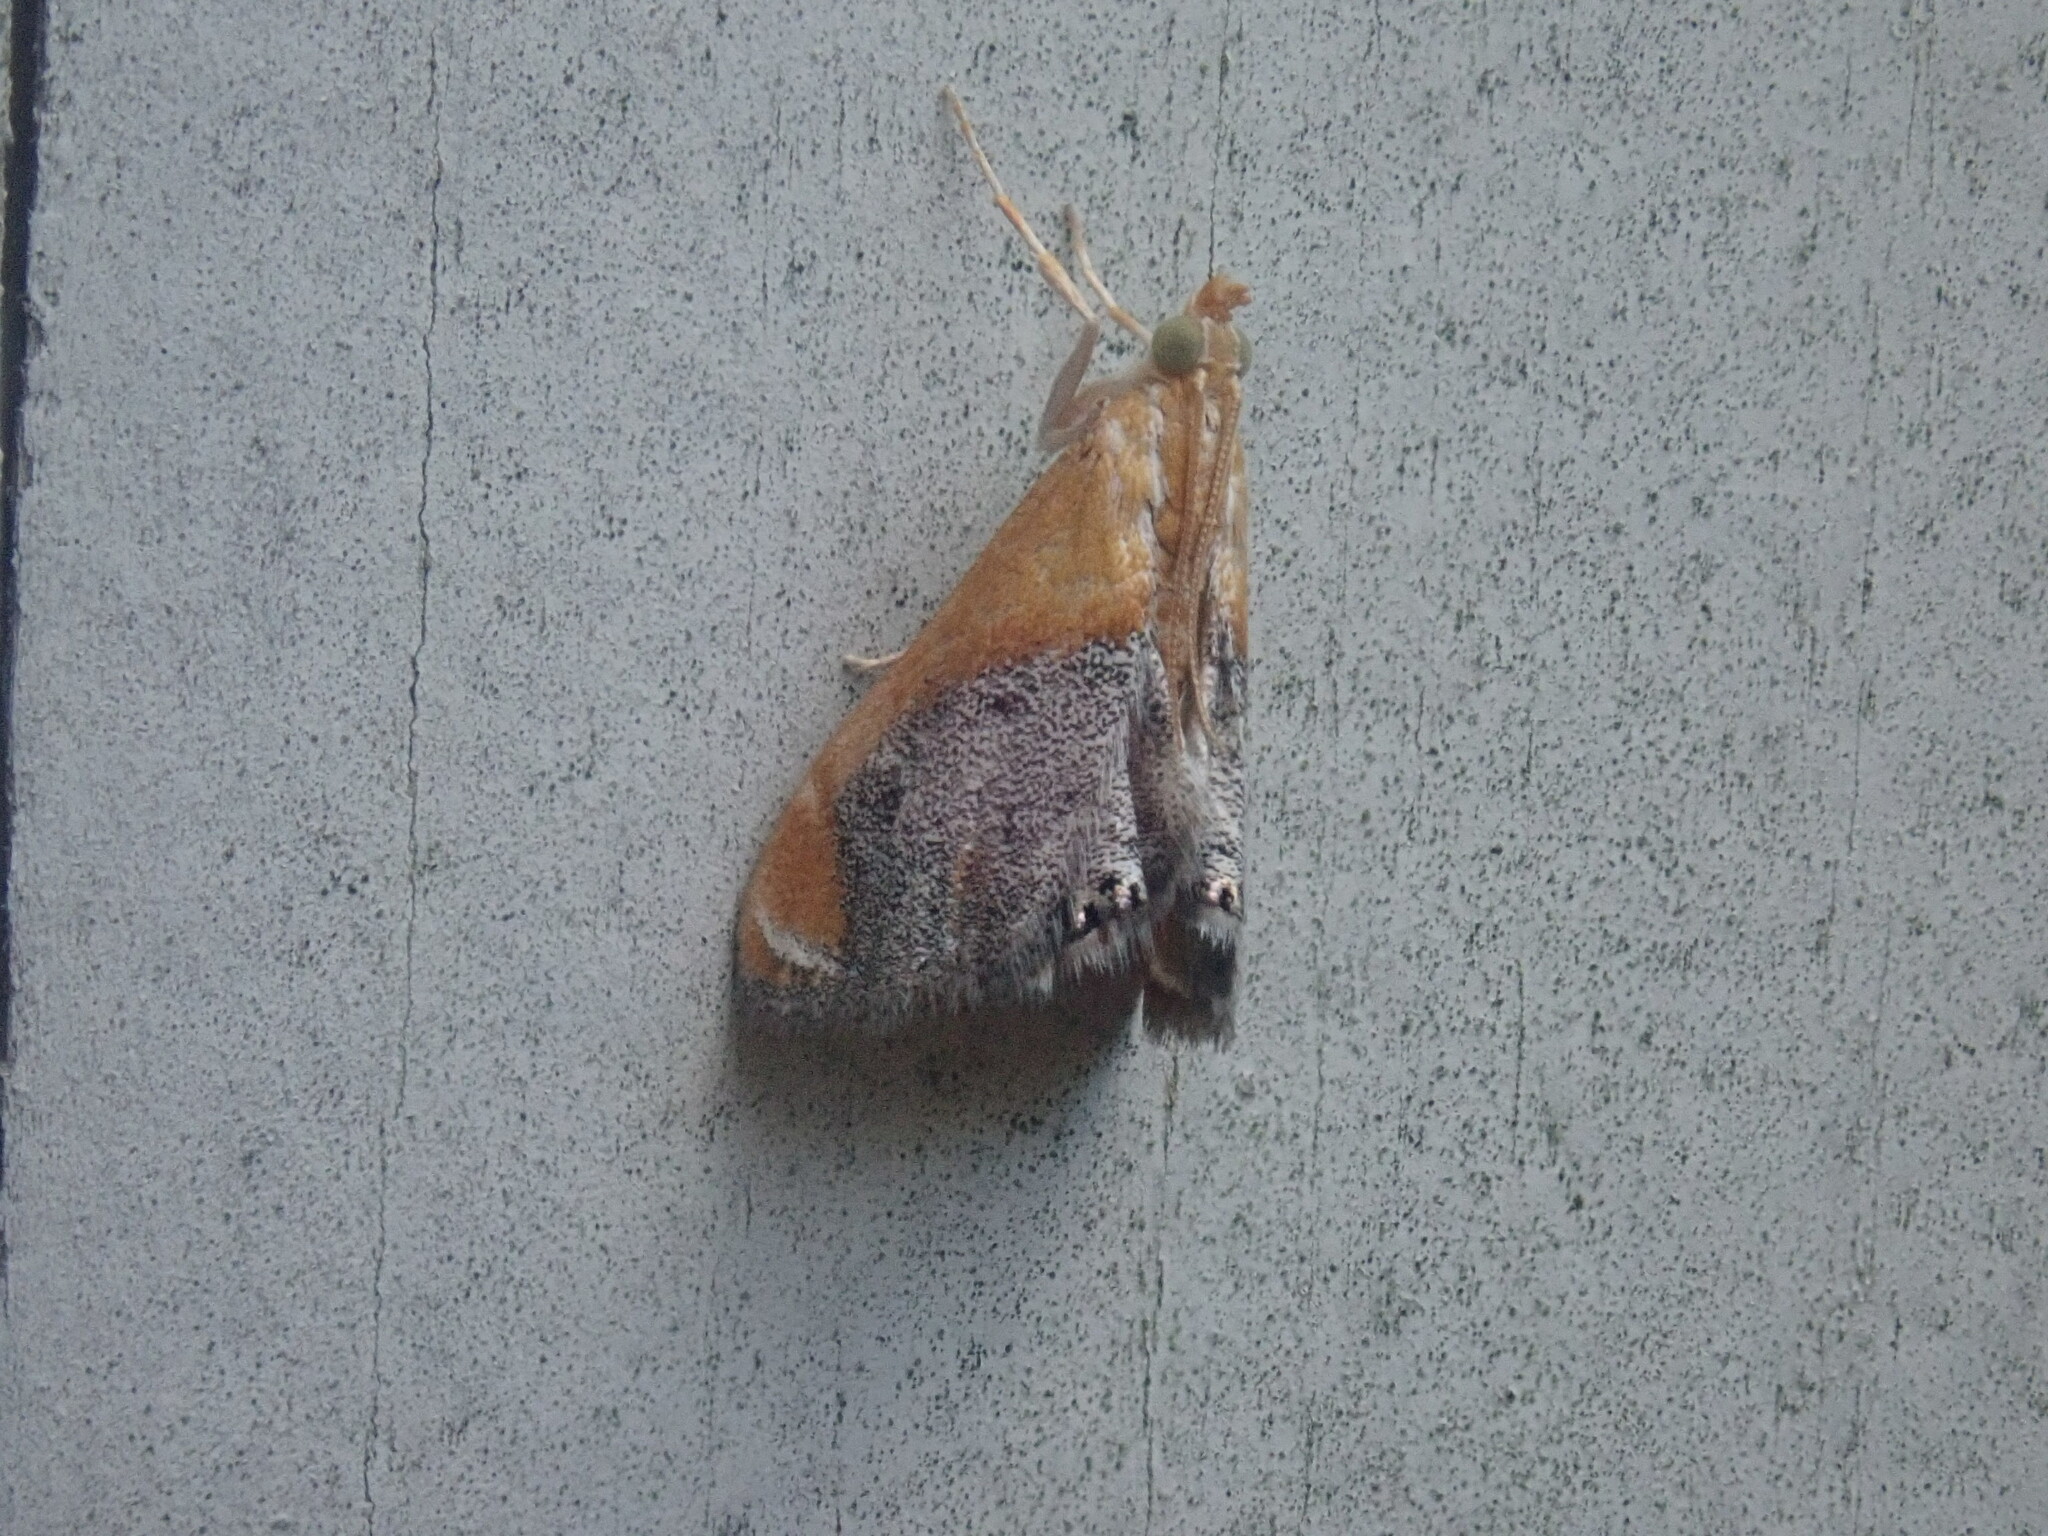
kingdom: Animalia
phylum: Arthropoda
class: Insecta
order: Lepidoptera
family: Crambidae
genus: Chalcoela
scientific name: Chalcoela iphitalis
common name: Sooty-winged chalcoela moth
